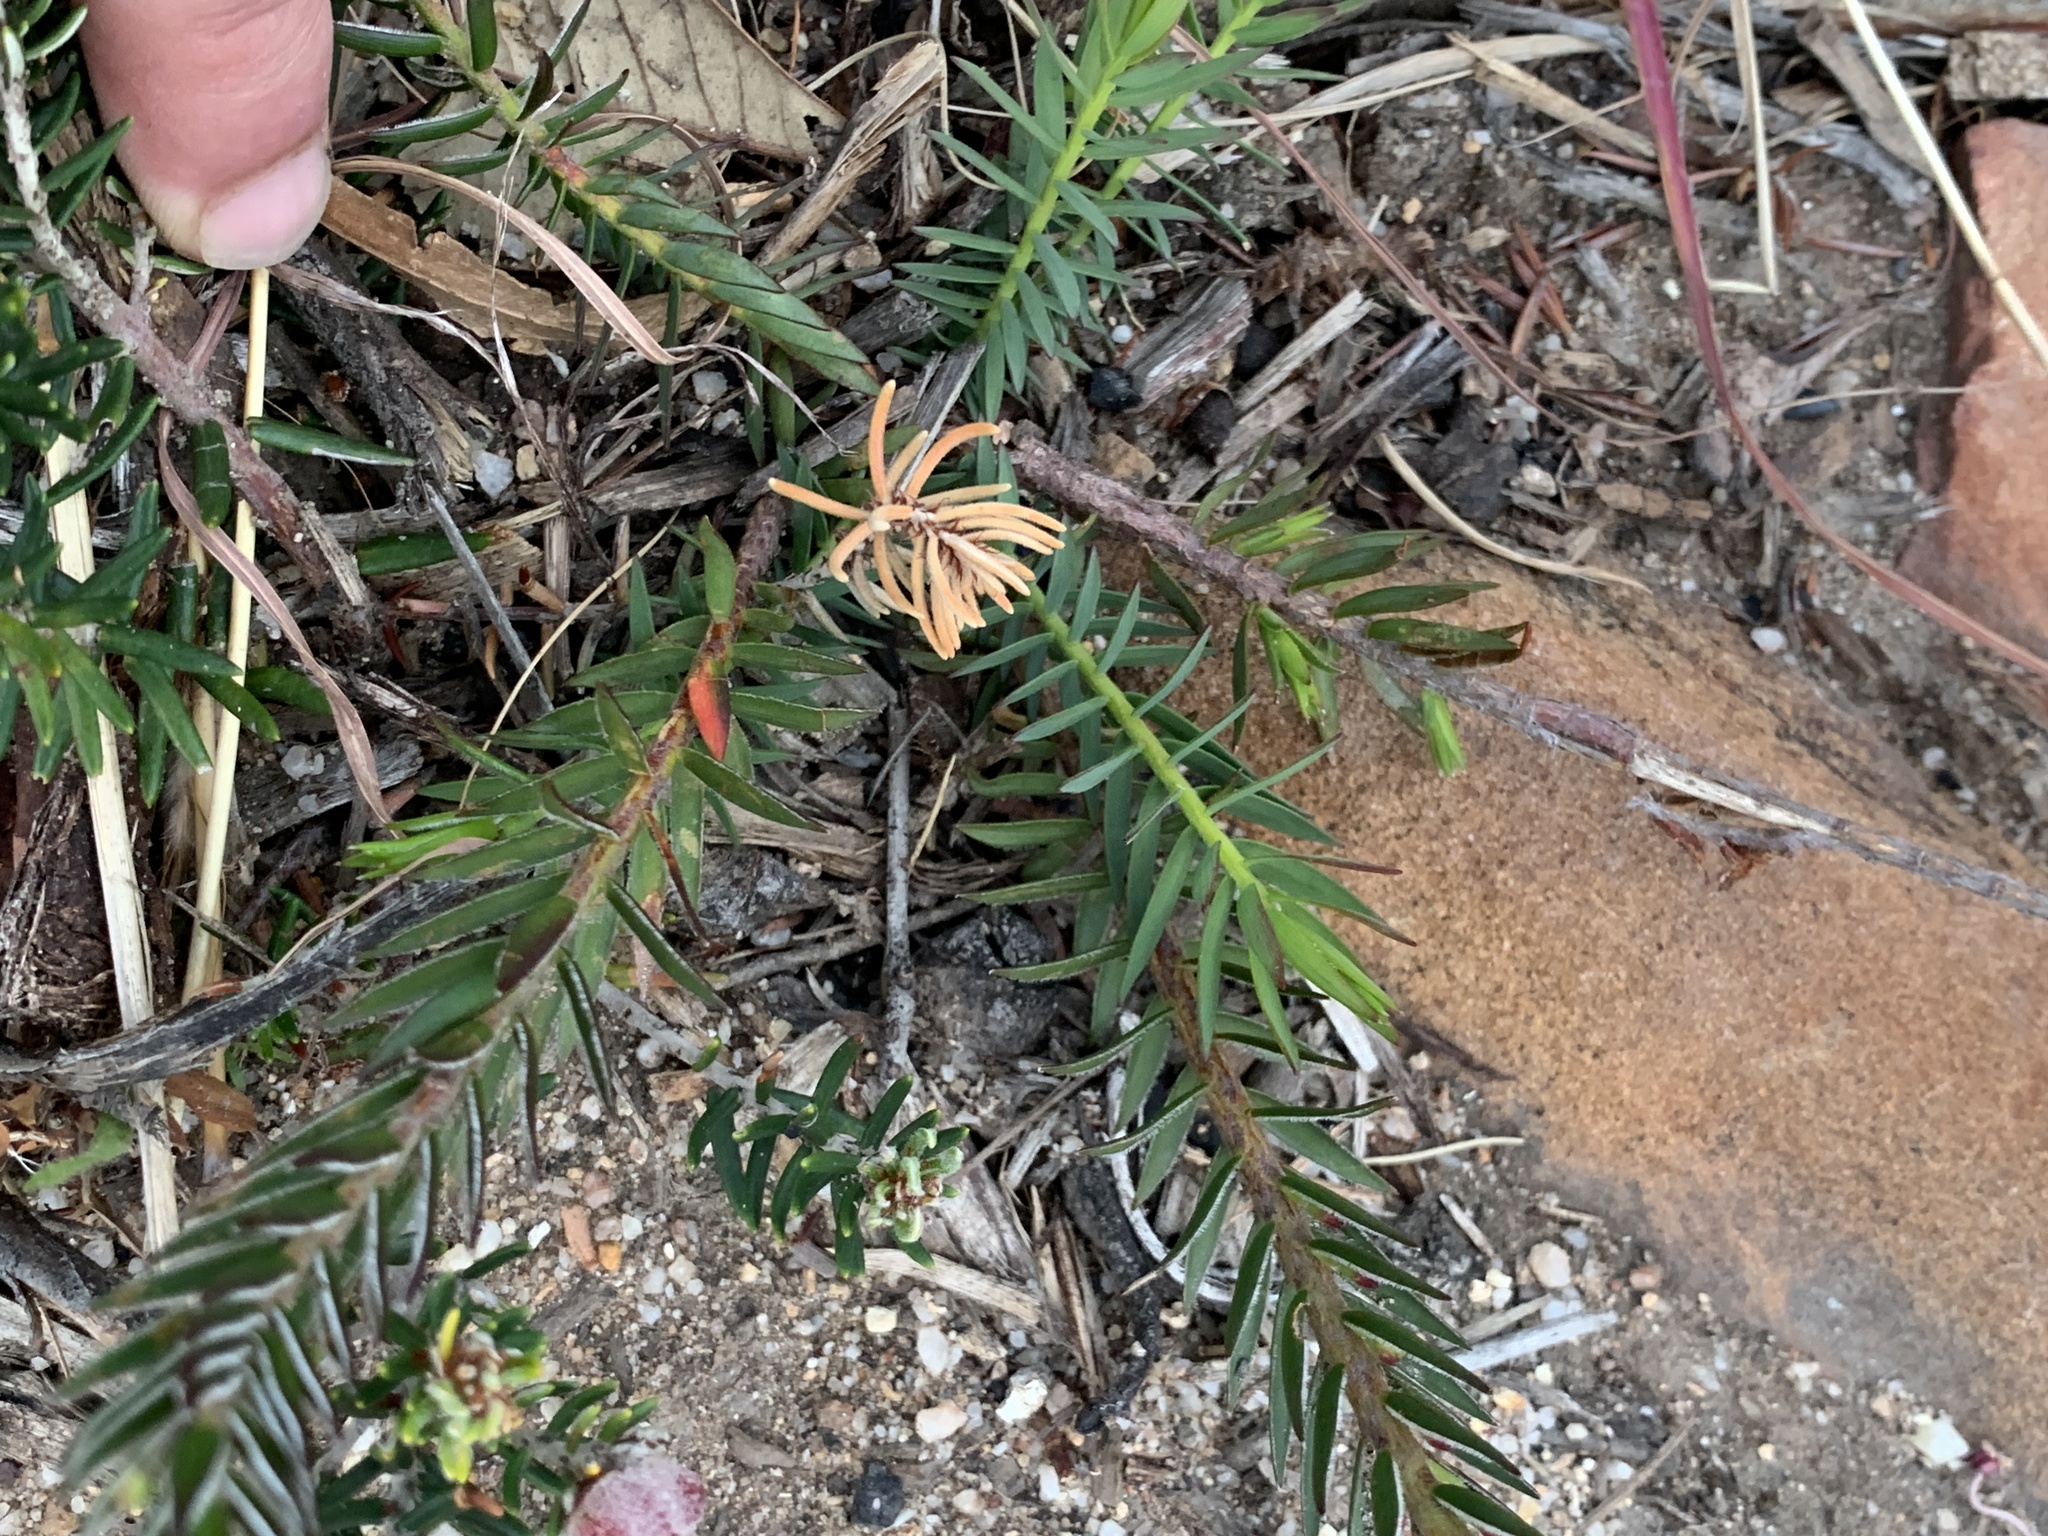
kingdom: Plantae
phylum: Tracheophyta
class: Magnoliopsida
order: Malvales
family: Thymelaeaceae
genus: Struthiola
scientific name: Struthiola ciliata
